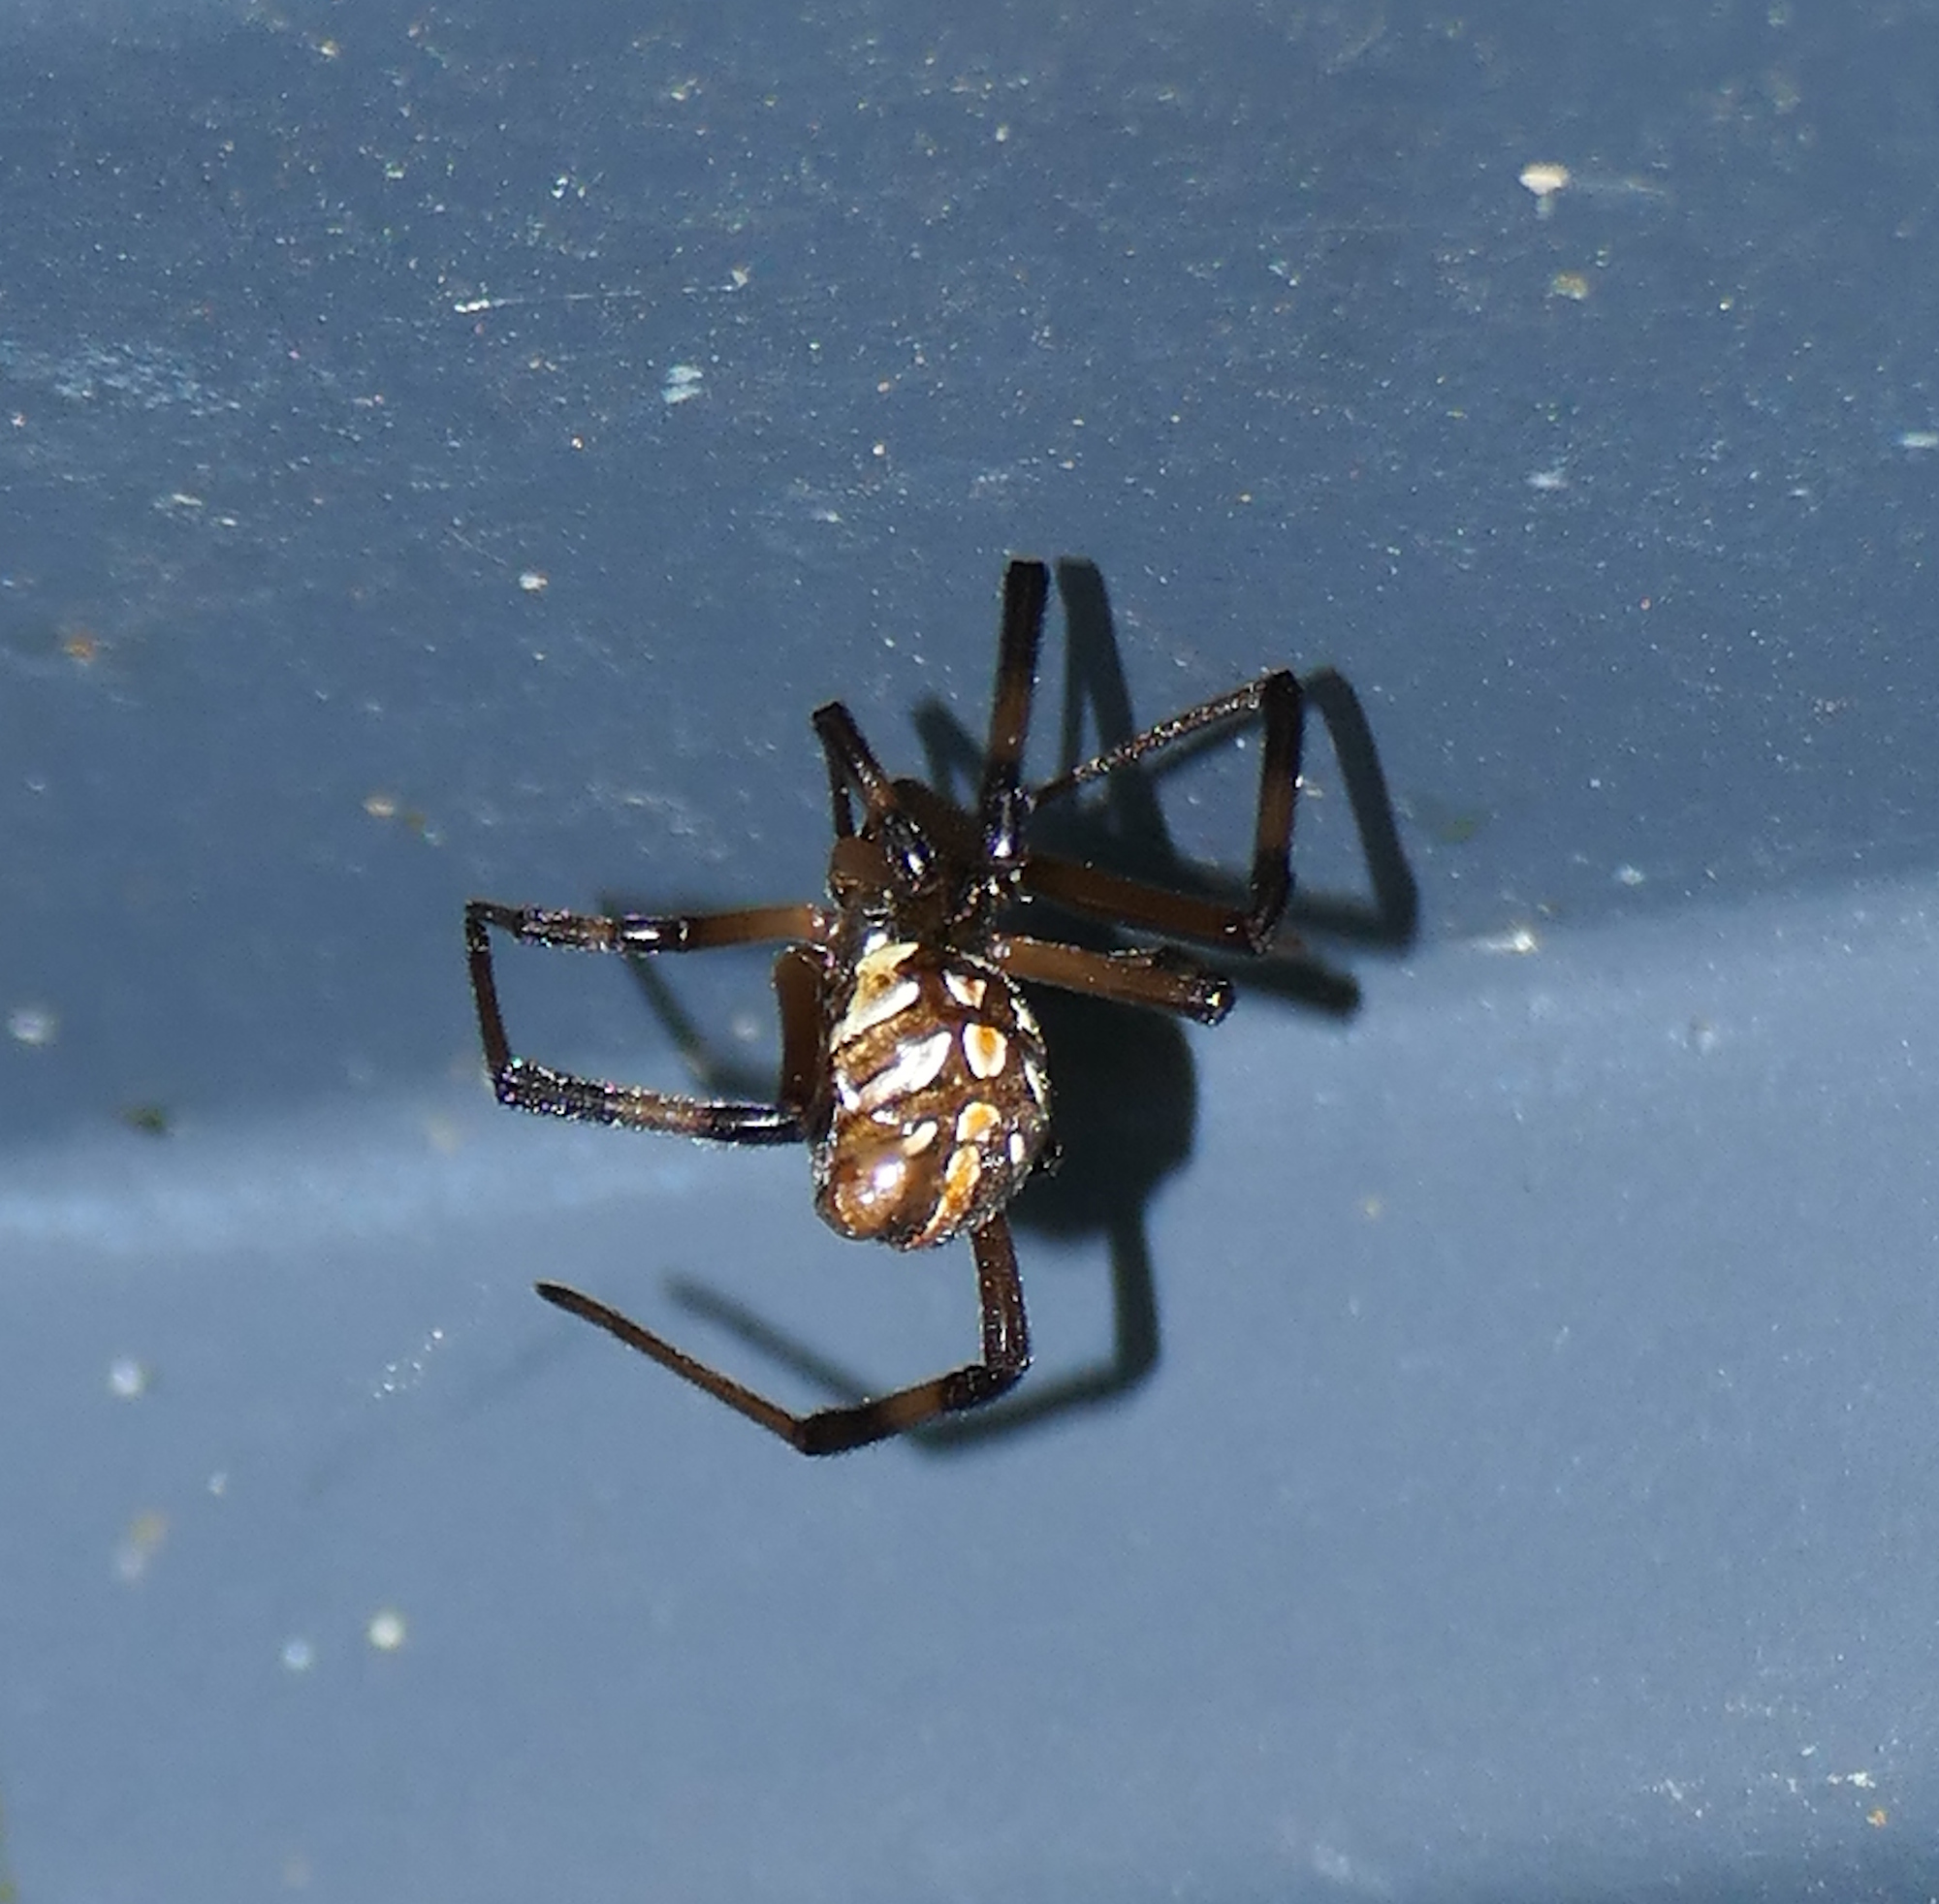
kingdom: Animalia
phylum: Arthropoda
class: Arachnida
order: Araneae
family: Theridiidae
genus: Latrodectus
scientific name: Latrodectus hesperus
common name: Western black widow
